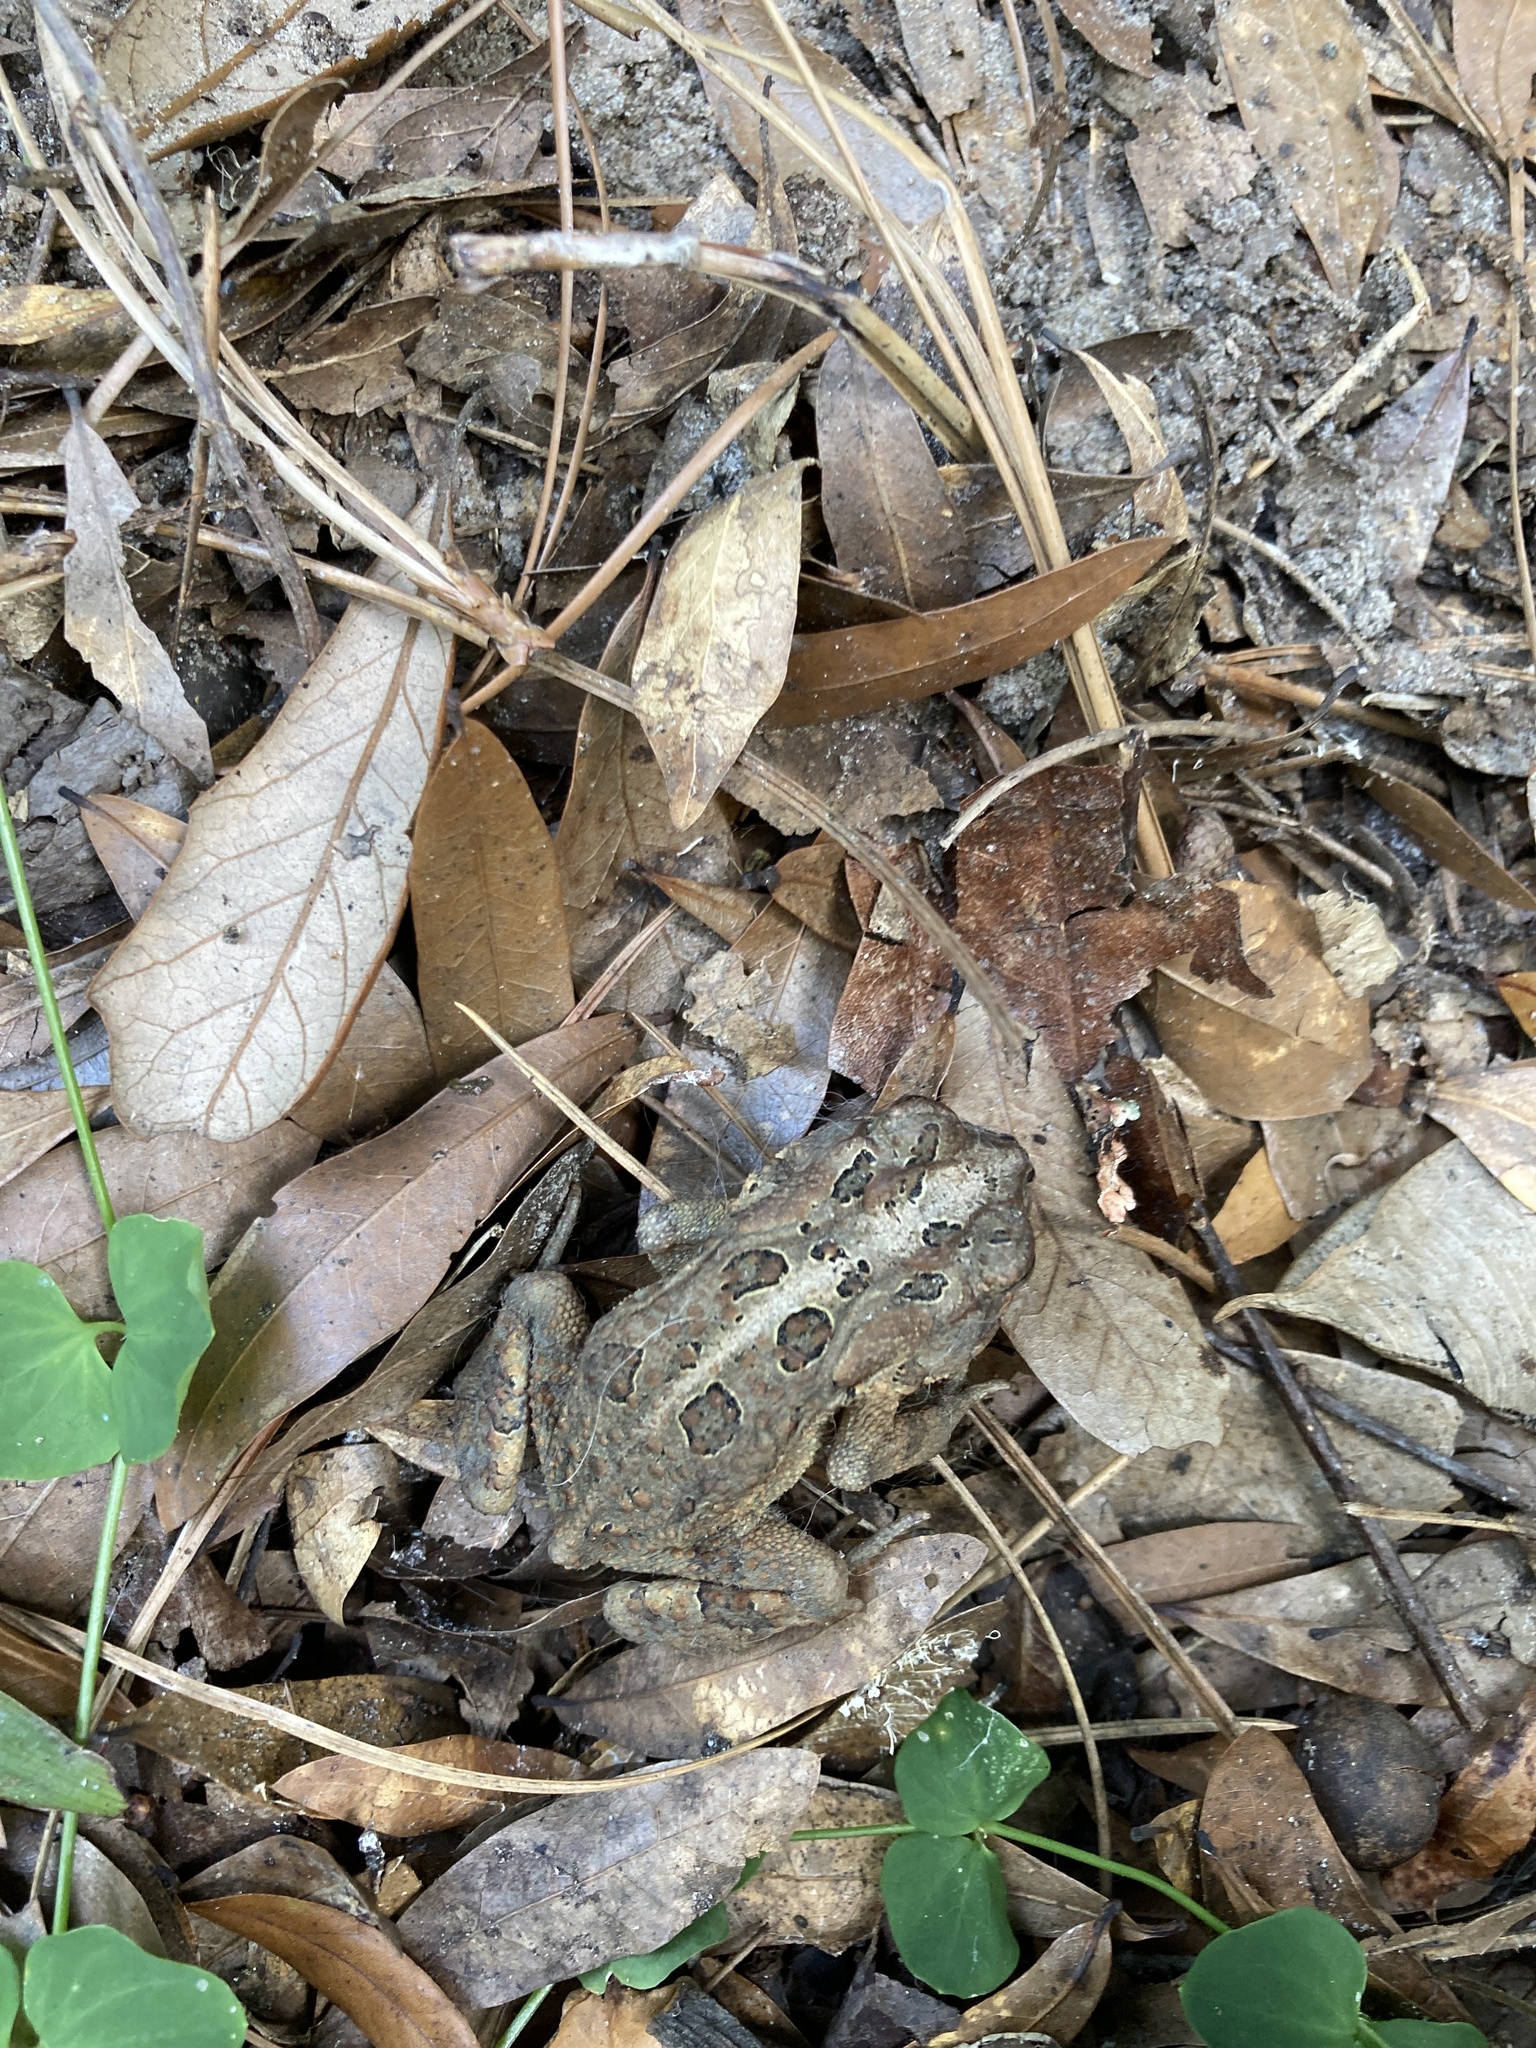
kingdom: Animalia
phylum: Chordata
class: Amphibia
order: Anura
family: Bufonidae
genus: Anaxyrus
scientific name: Anaxyrus terrestris
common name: Southern toad
